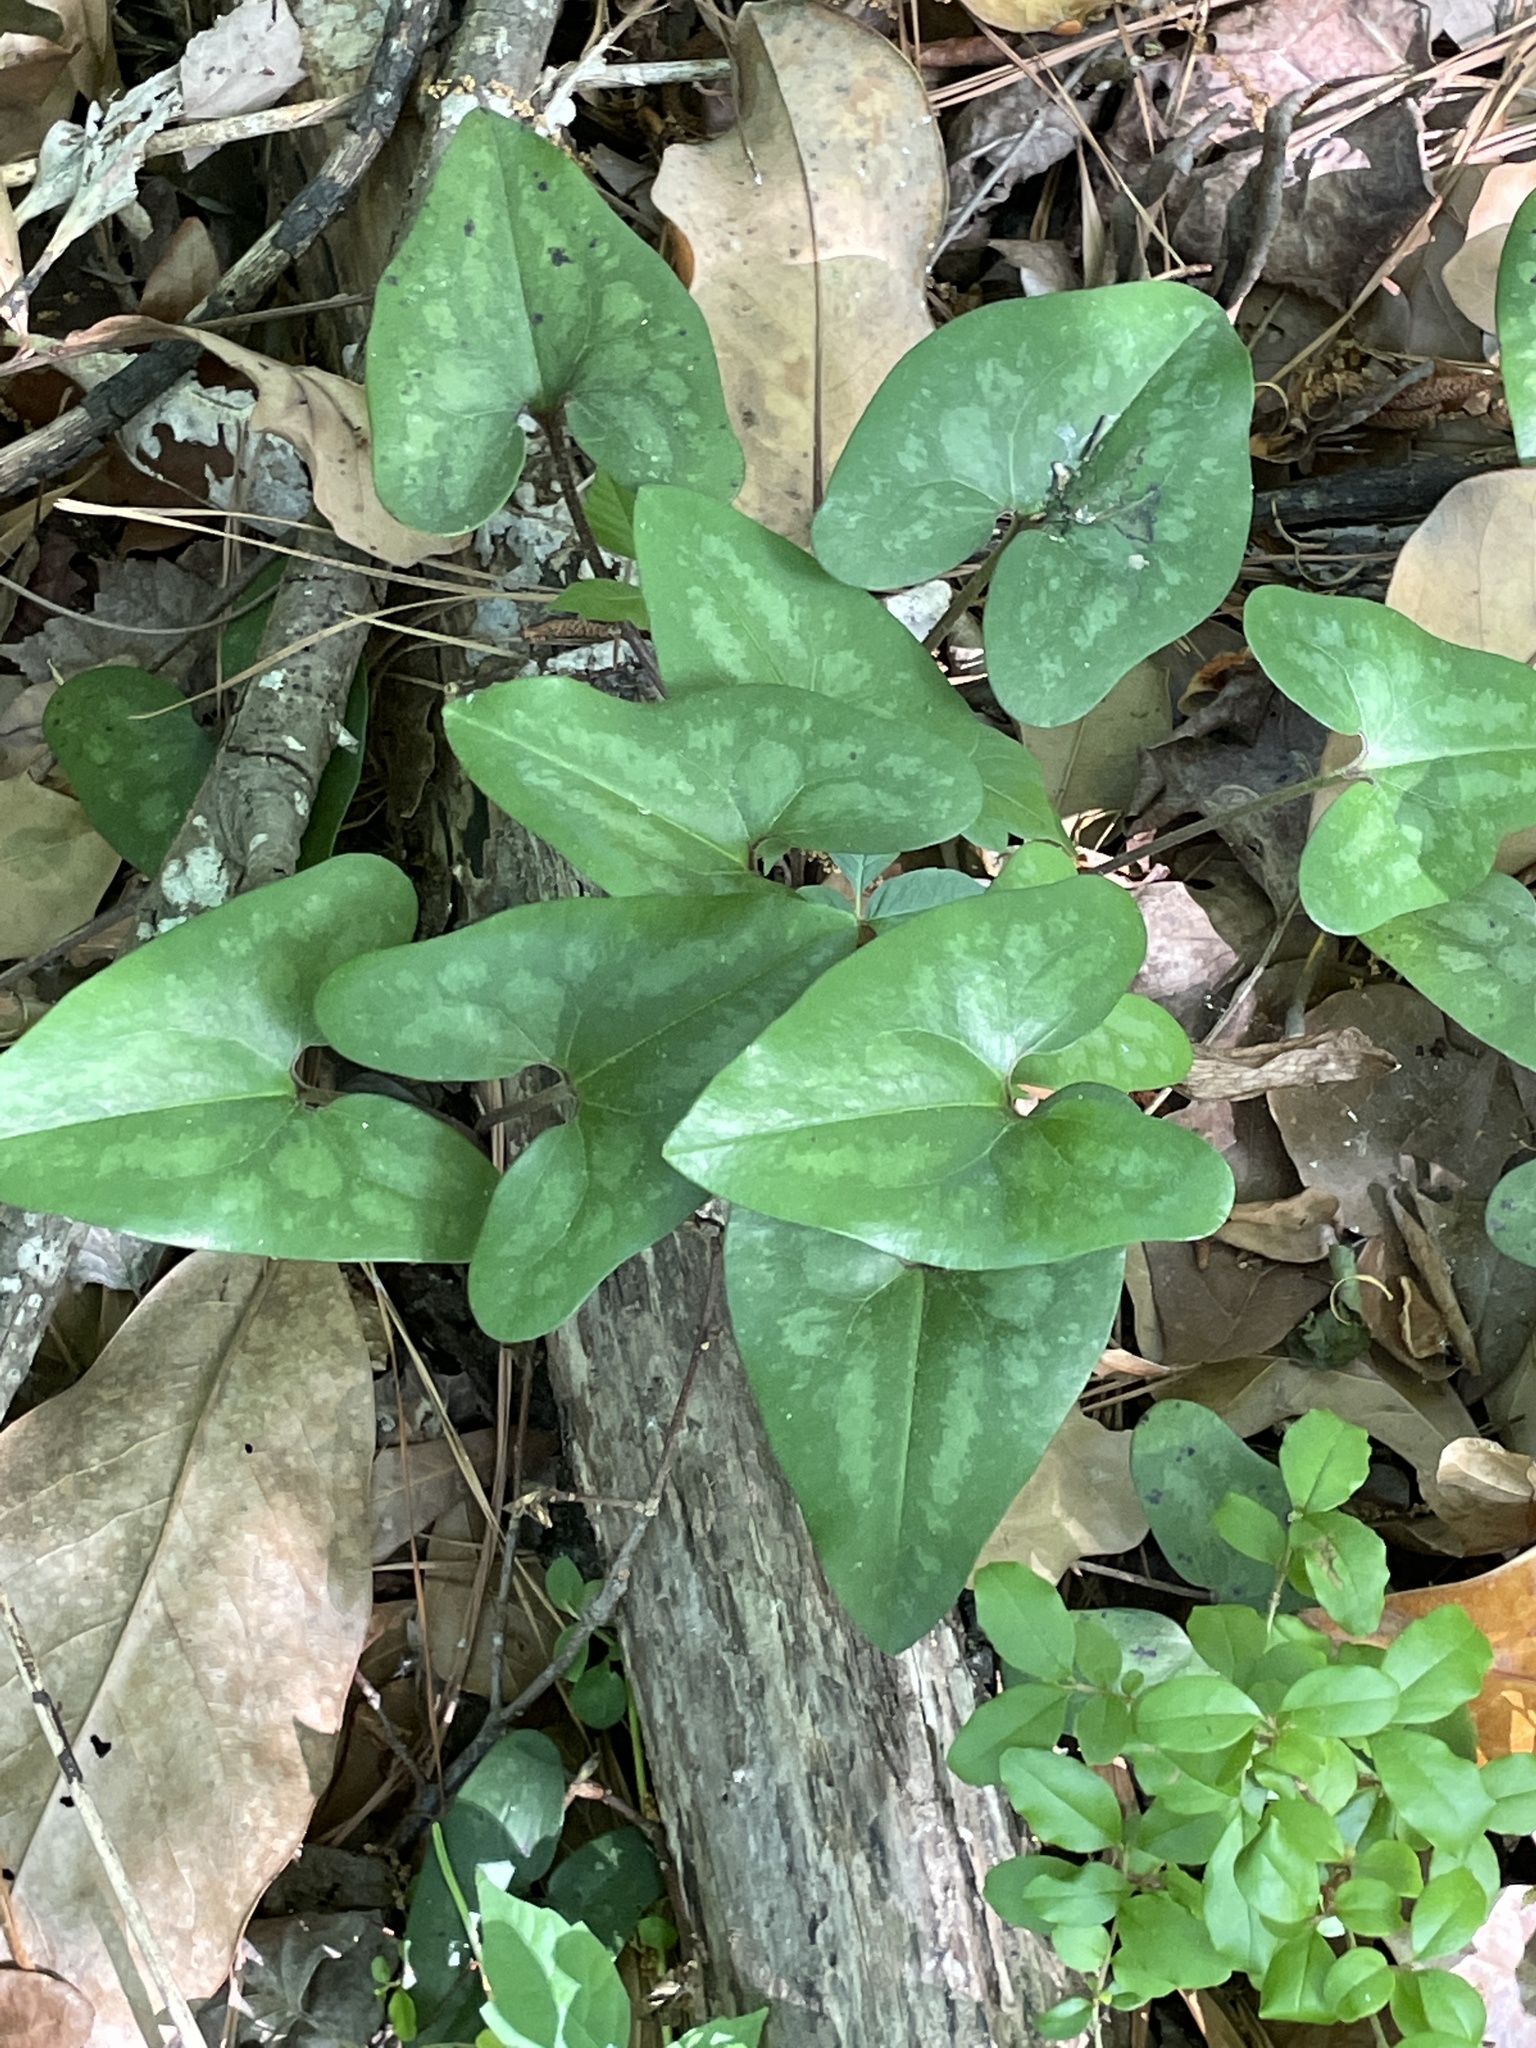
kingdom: Plantae
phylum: Tracheophyta
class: Magnoliopsida
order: Piperales
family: Aristolochiaceae
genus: Hexastylis
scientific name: Hexastylis arifolia
